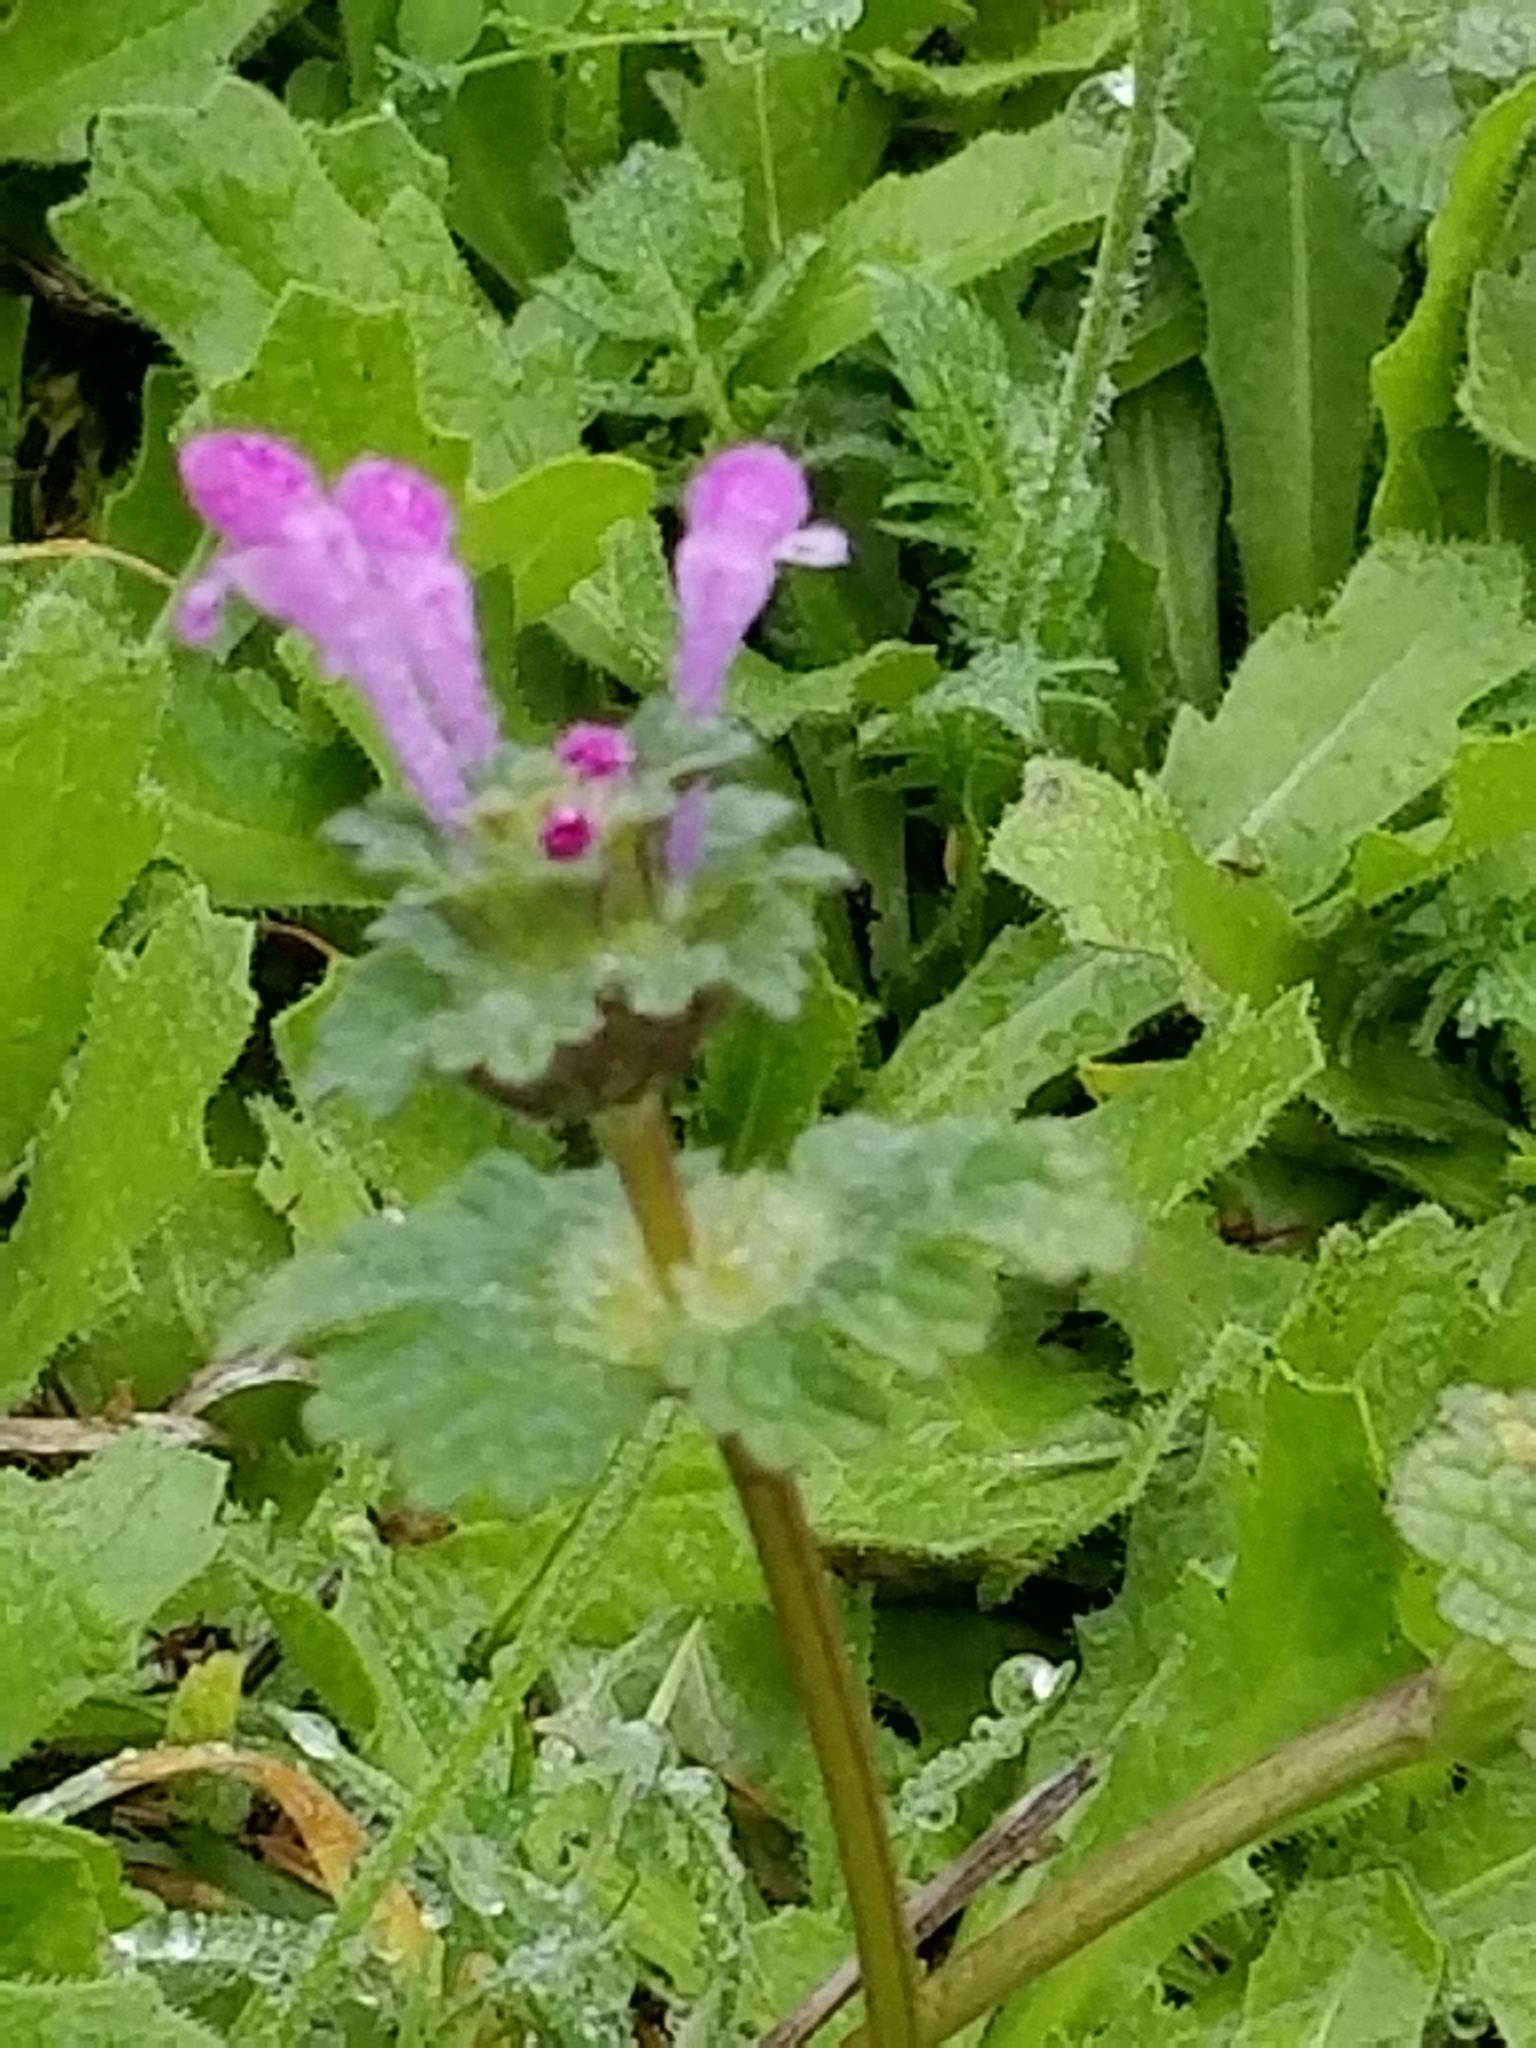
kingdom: Plantae
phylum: Tracheophyta
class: Magnoliopsida
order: Lamiales
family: Lamiaceae
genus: Lamium
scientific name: Lamium amplexicaule
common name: Henbit dead-nettle
